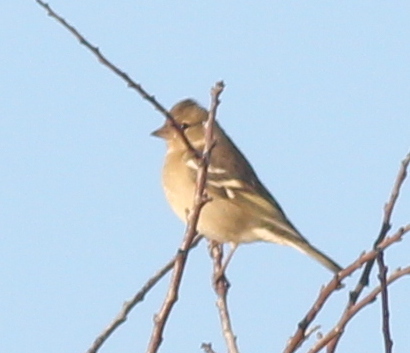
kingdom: Animalia
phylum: Chordata
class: Aves
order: Passeriformes
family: Fringillidae
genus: Fringilla
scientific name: Fringilla coelebs
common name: Common chaffinch
